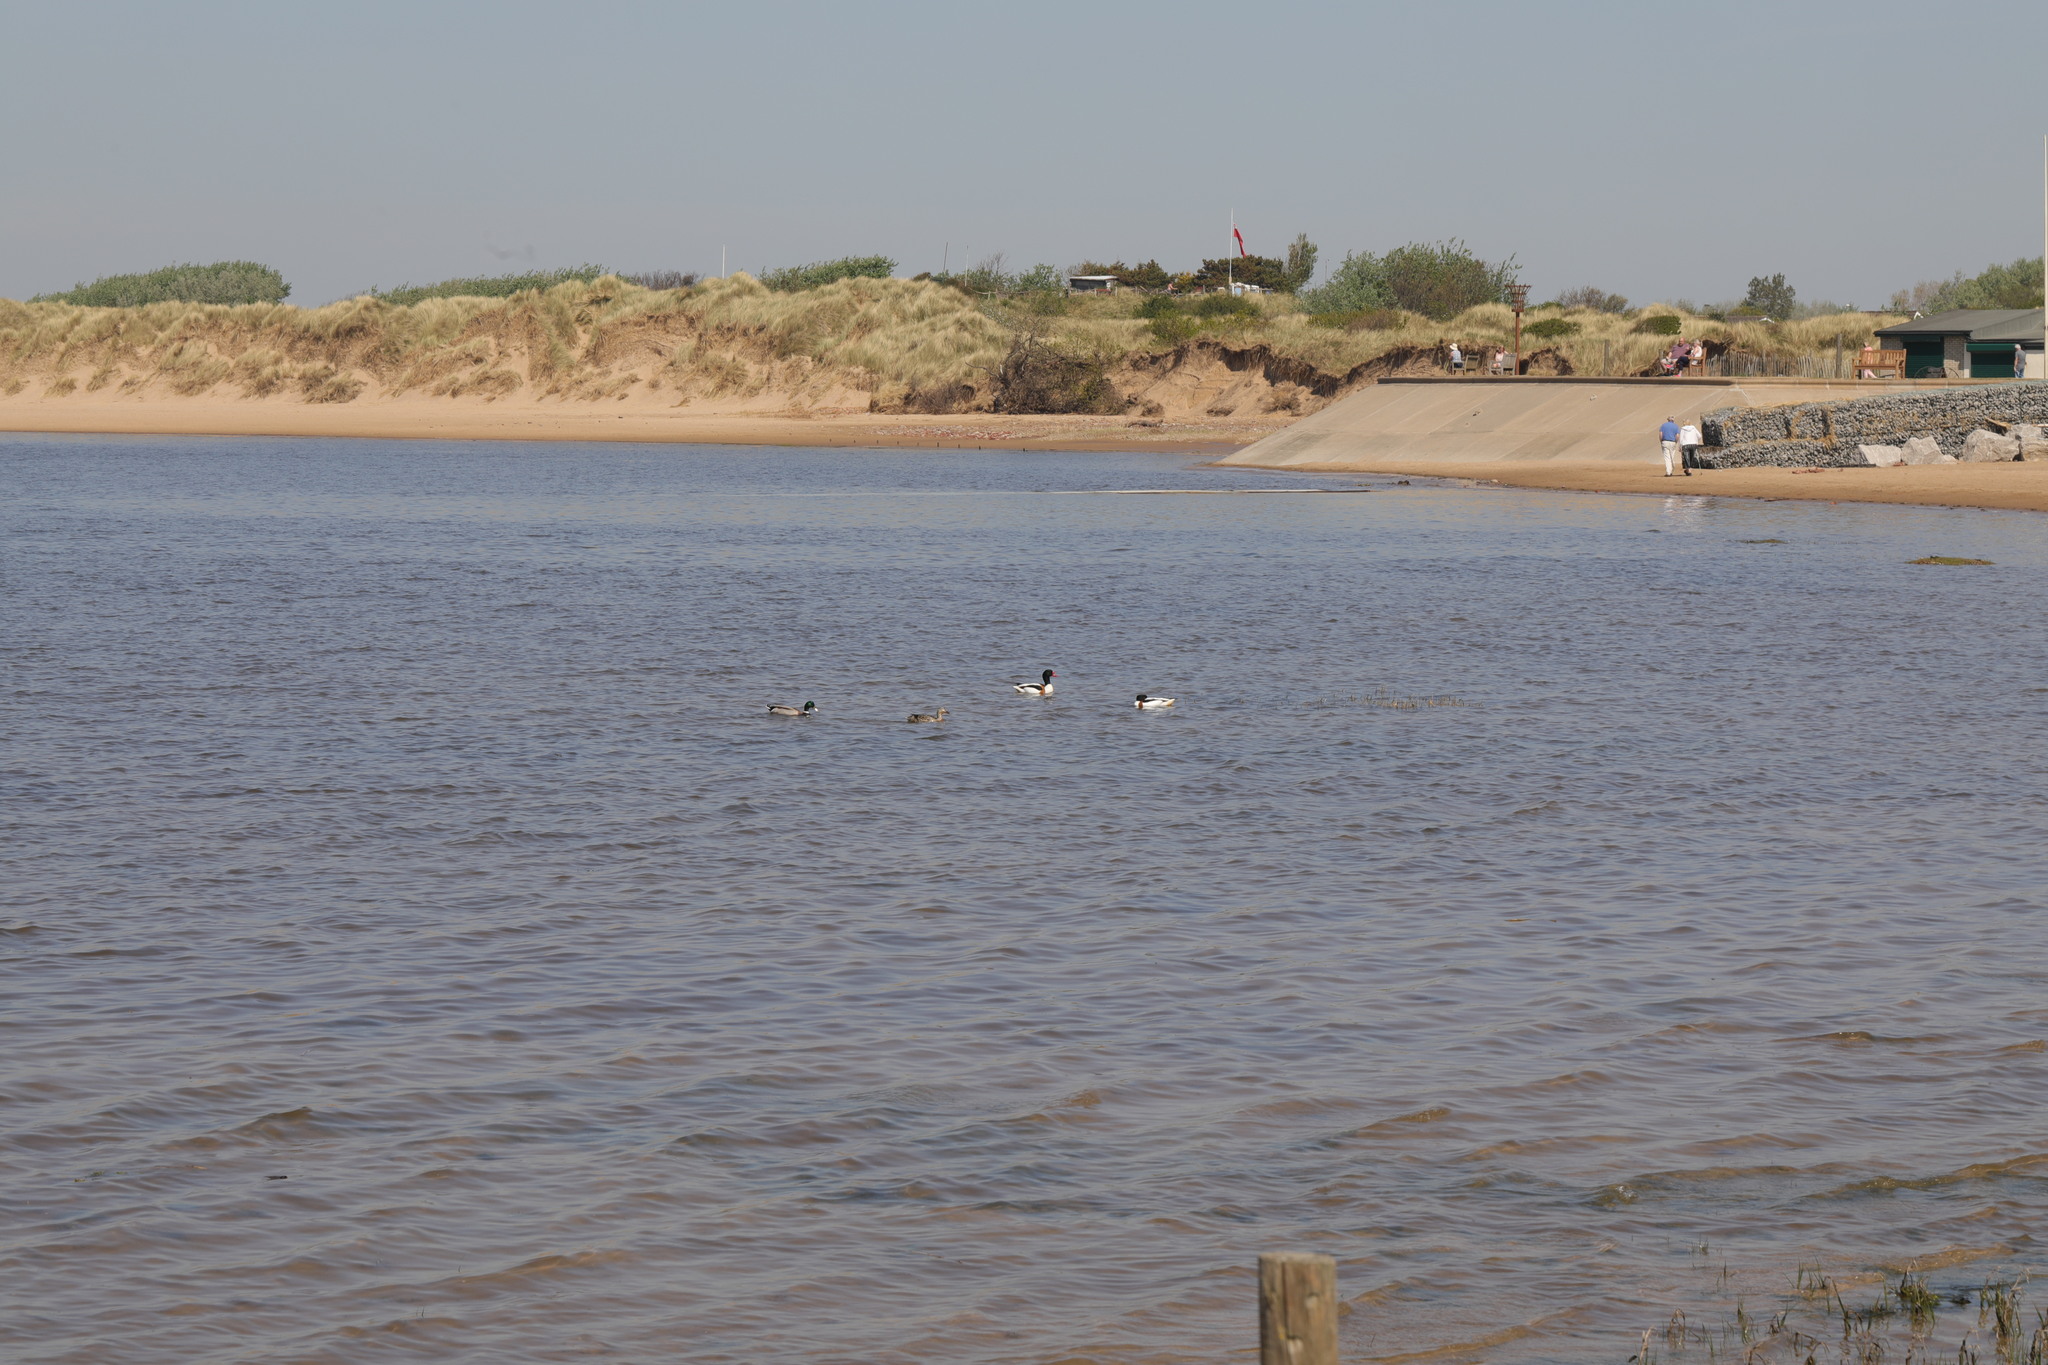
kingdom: Animalia
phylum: Chordata
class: Aves
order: Anseriformes
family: Anatidae
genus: Tadorna
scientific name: Tadorna tadorna
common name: Common shelduck
